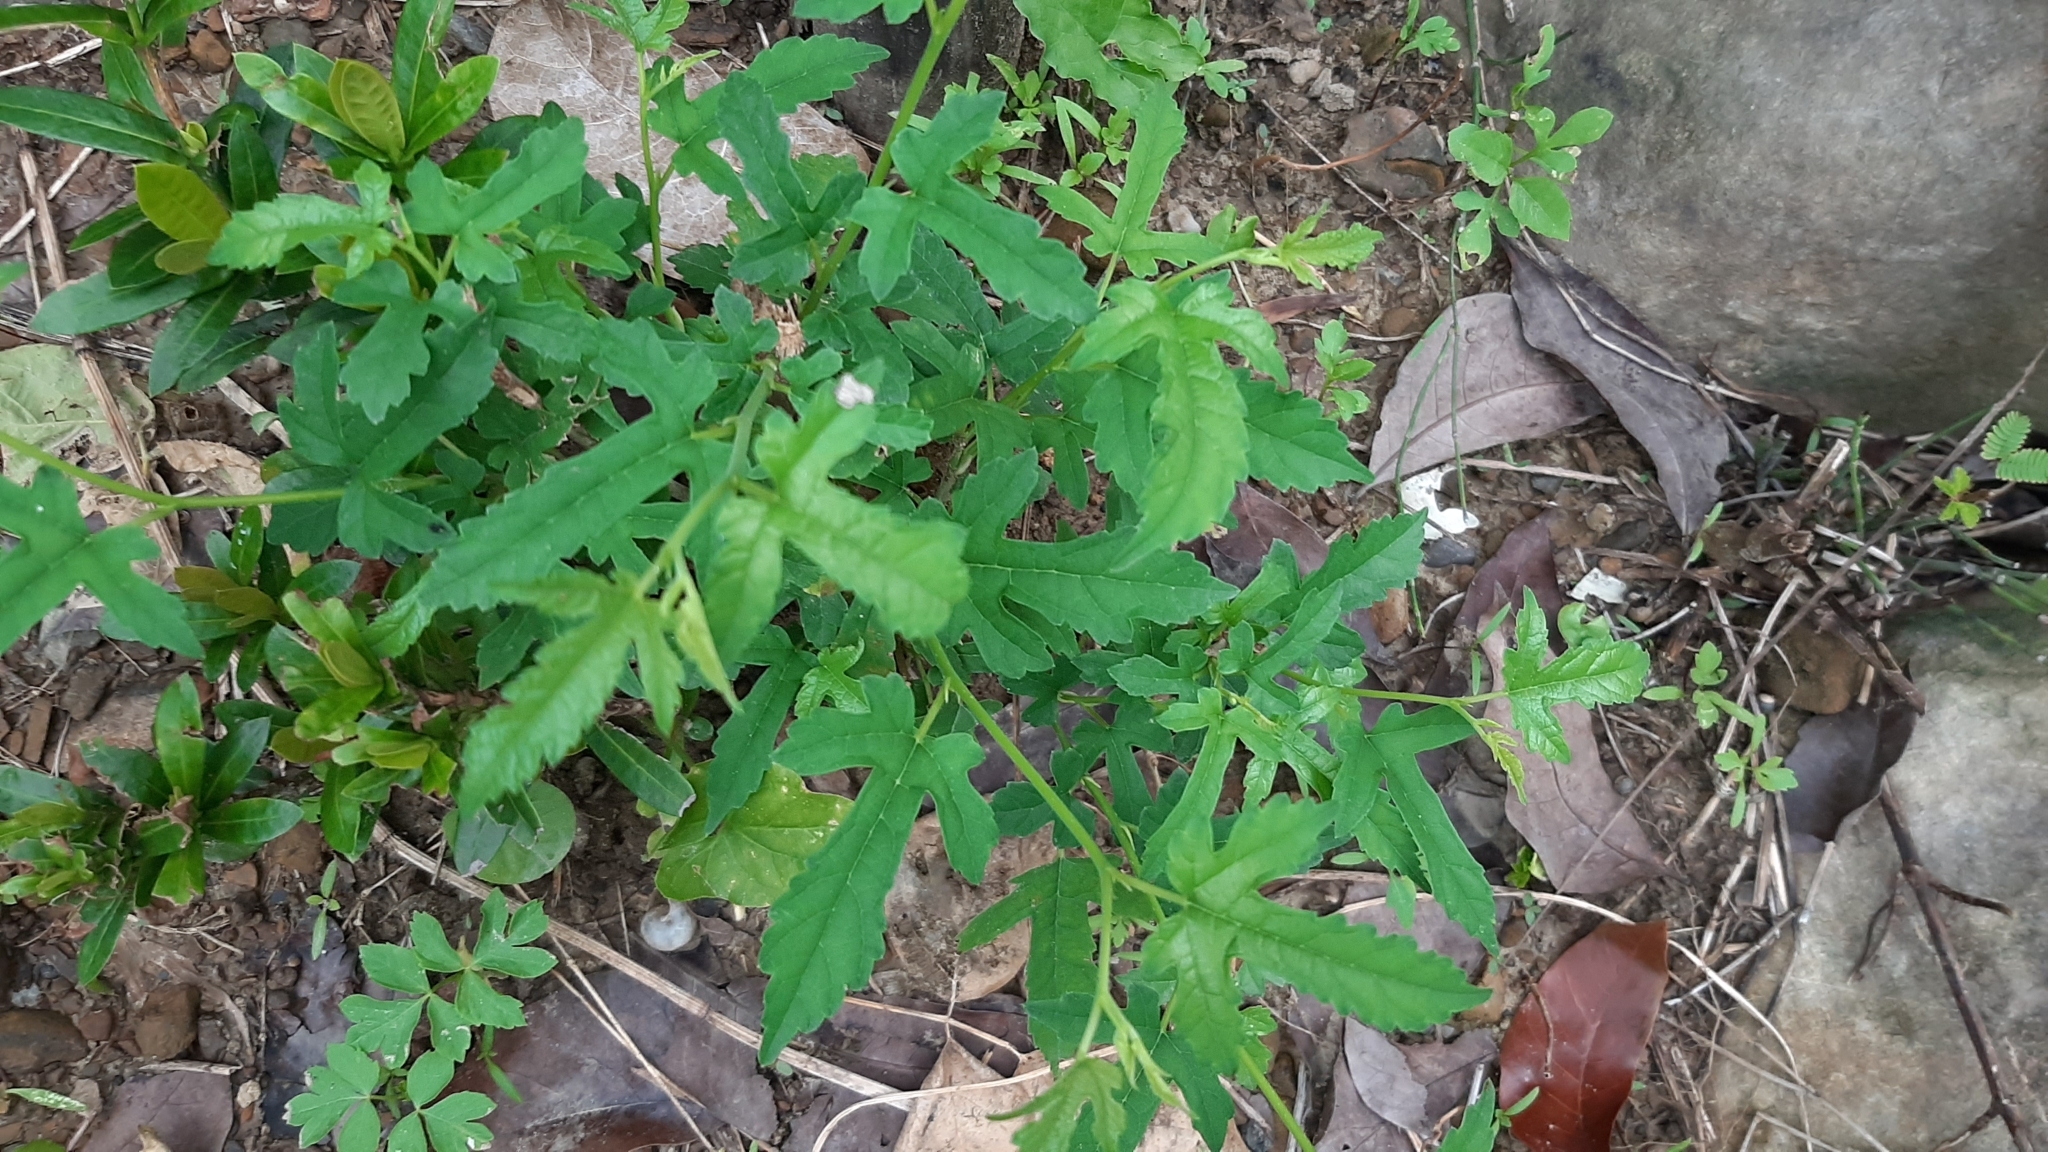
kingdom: Plantae
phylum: Tracheophyta
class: Magnoliopsida
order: Rosales
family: Moraceae
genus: Morus
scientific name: Morus indica
